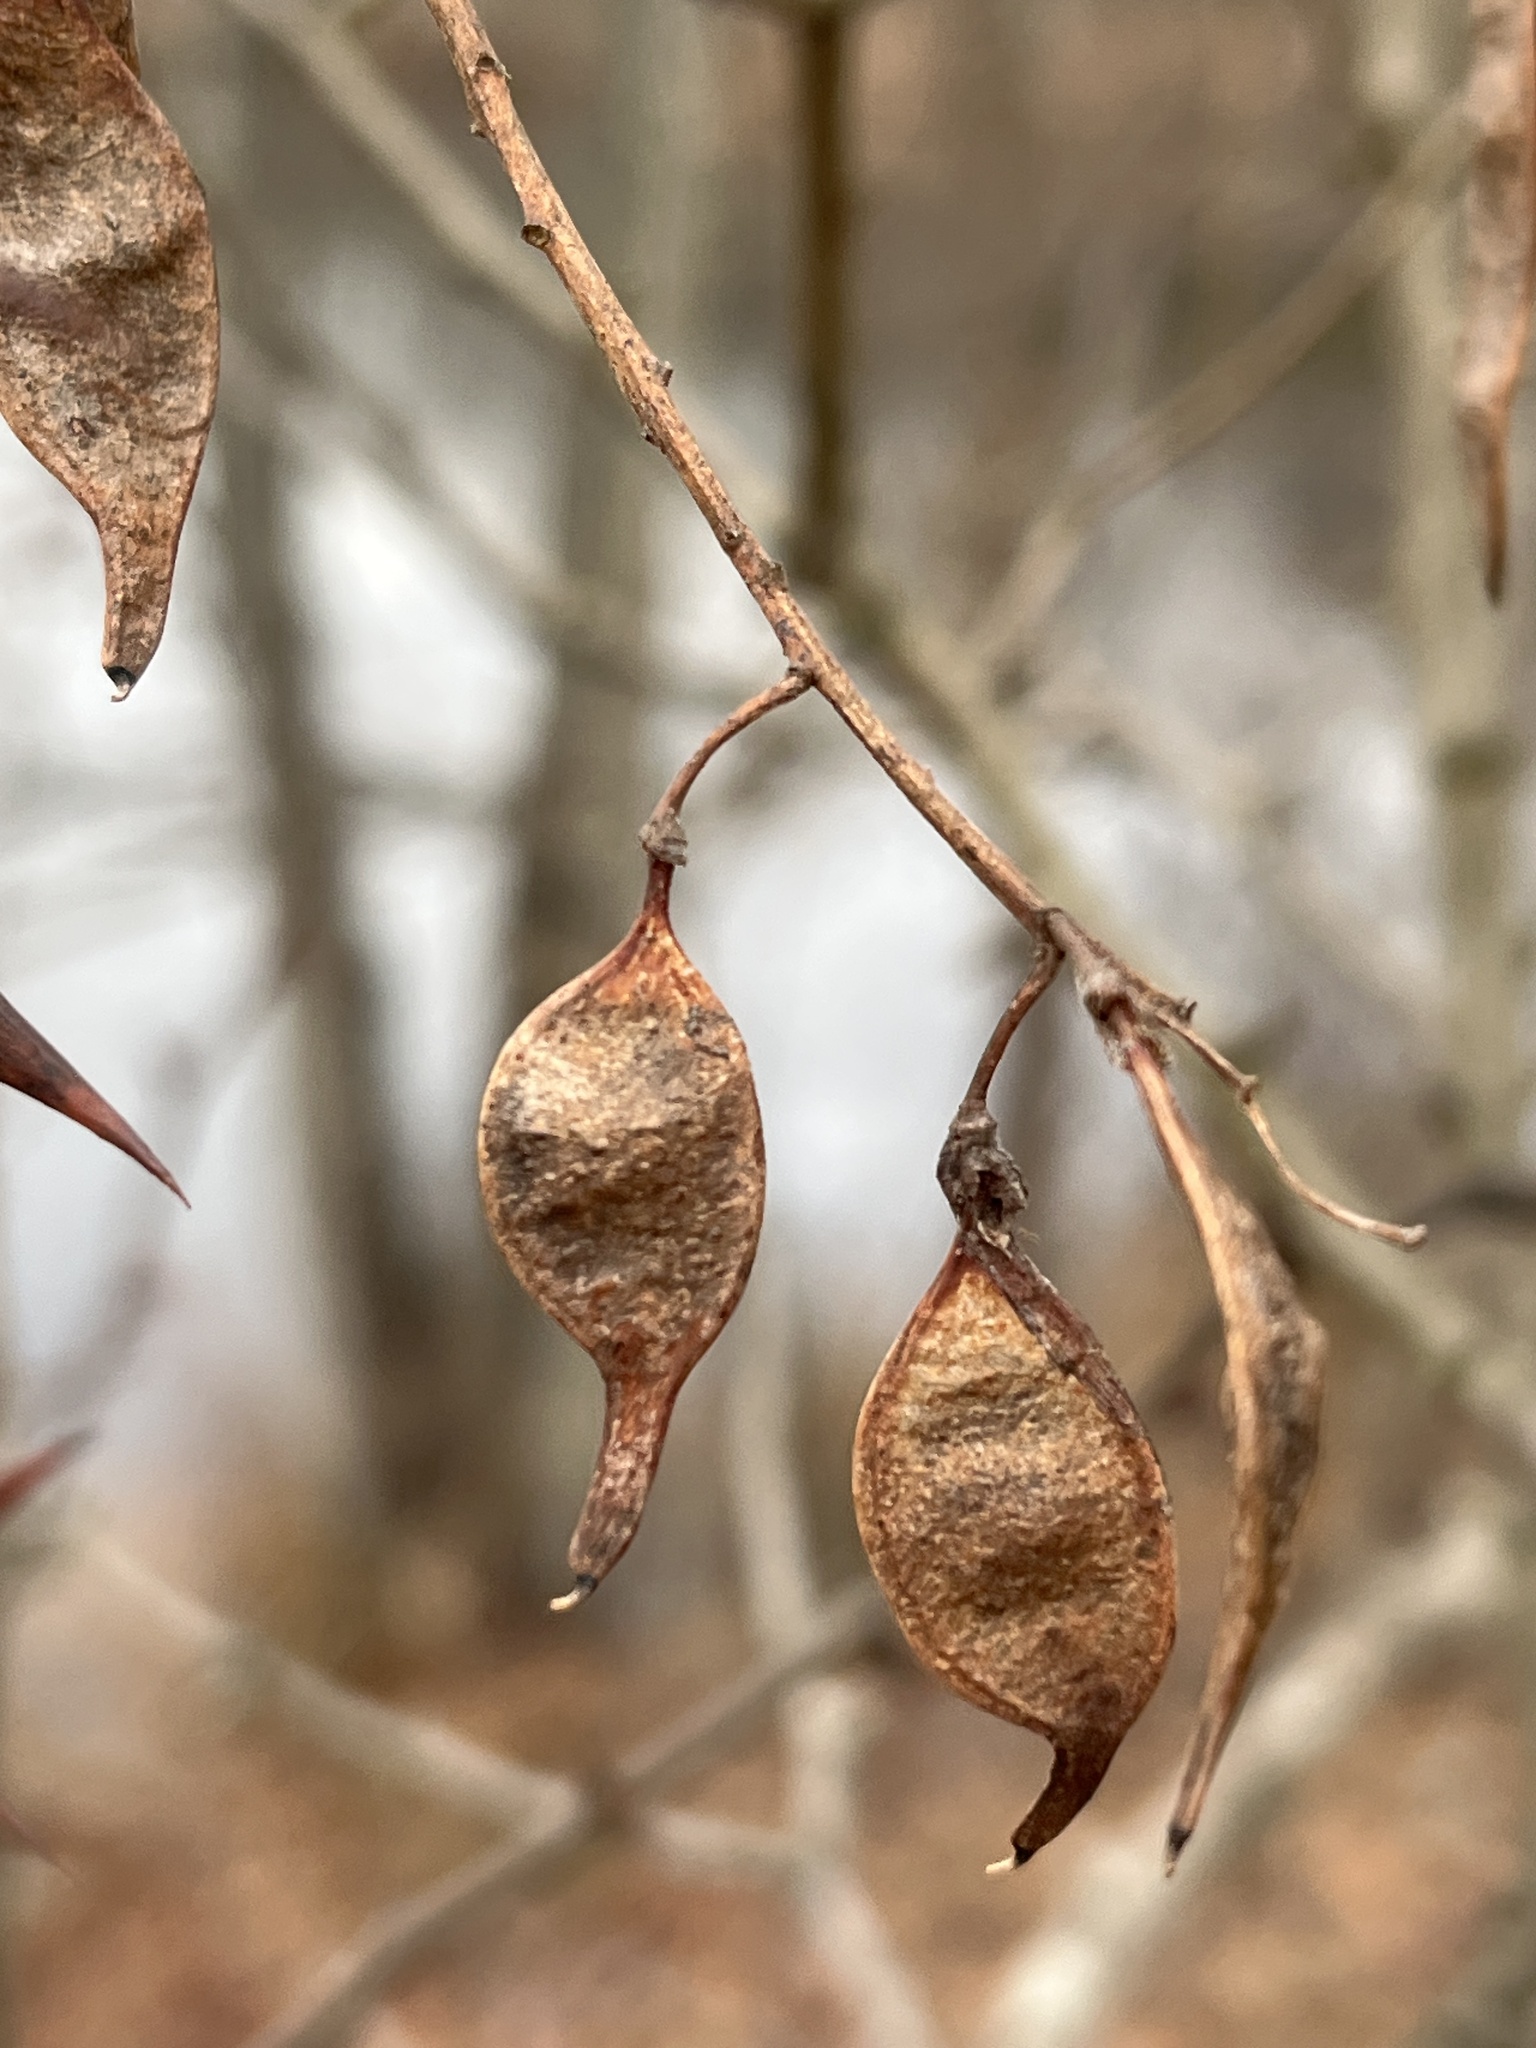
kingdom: Plantae
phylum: Tracheophyta
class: Magnoliopsida
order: Fabales
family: Fabaceae
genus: Robinia
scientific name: Robinia pseudoacacia
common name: Black locust
